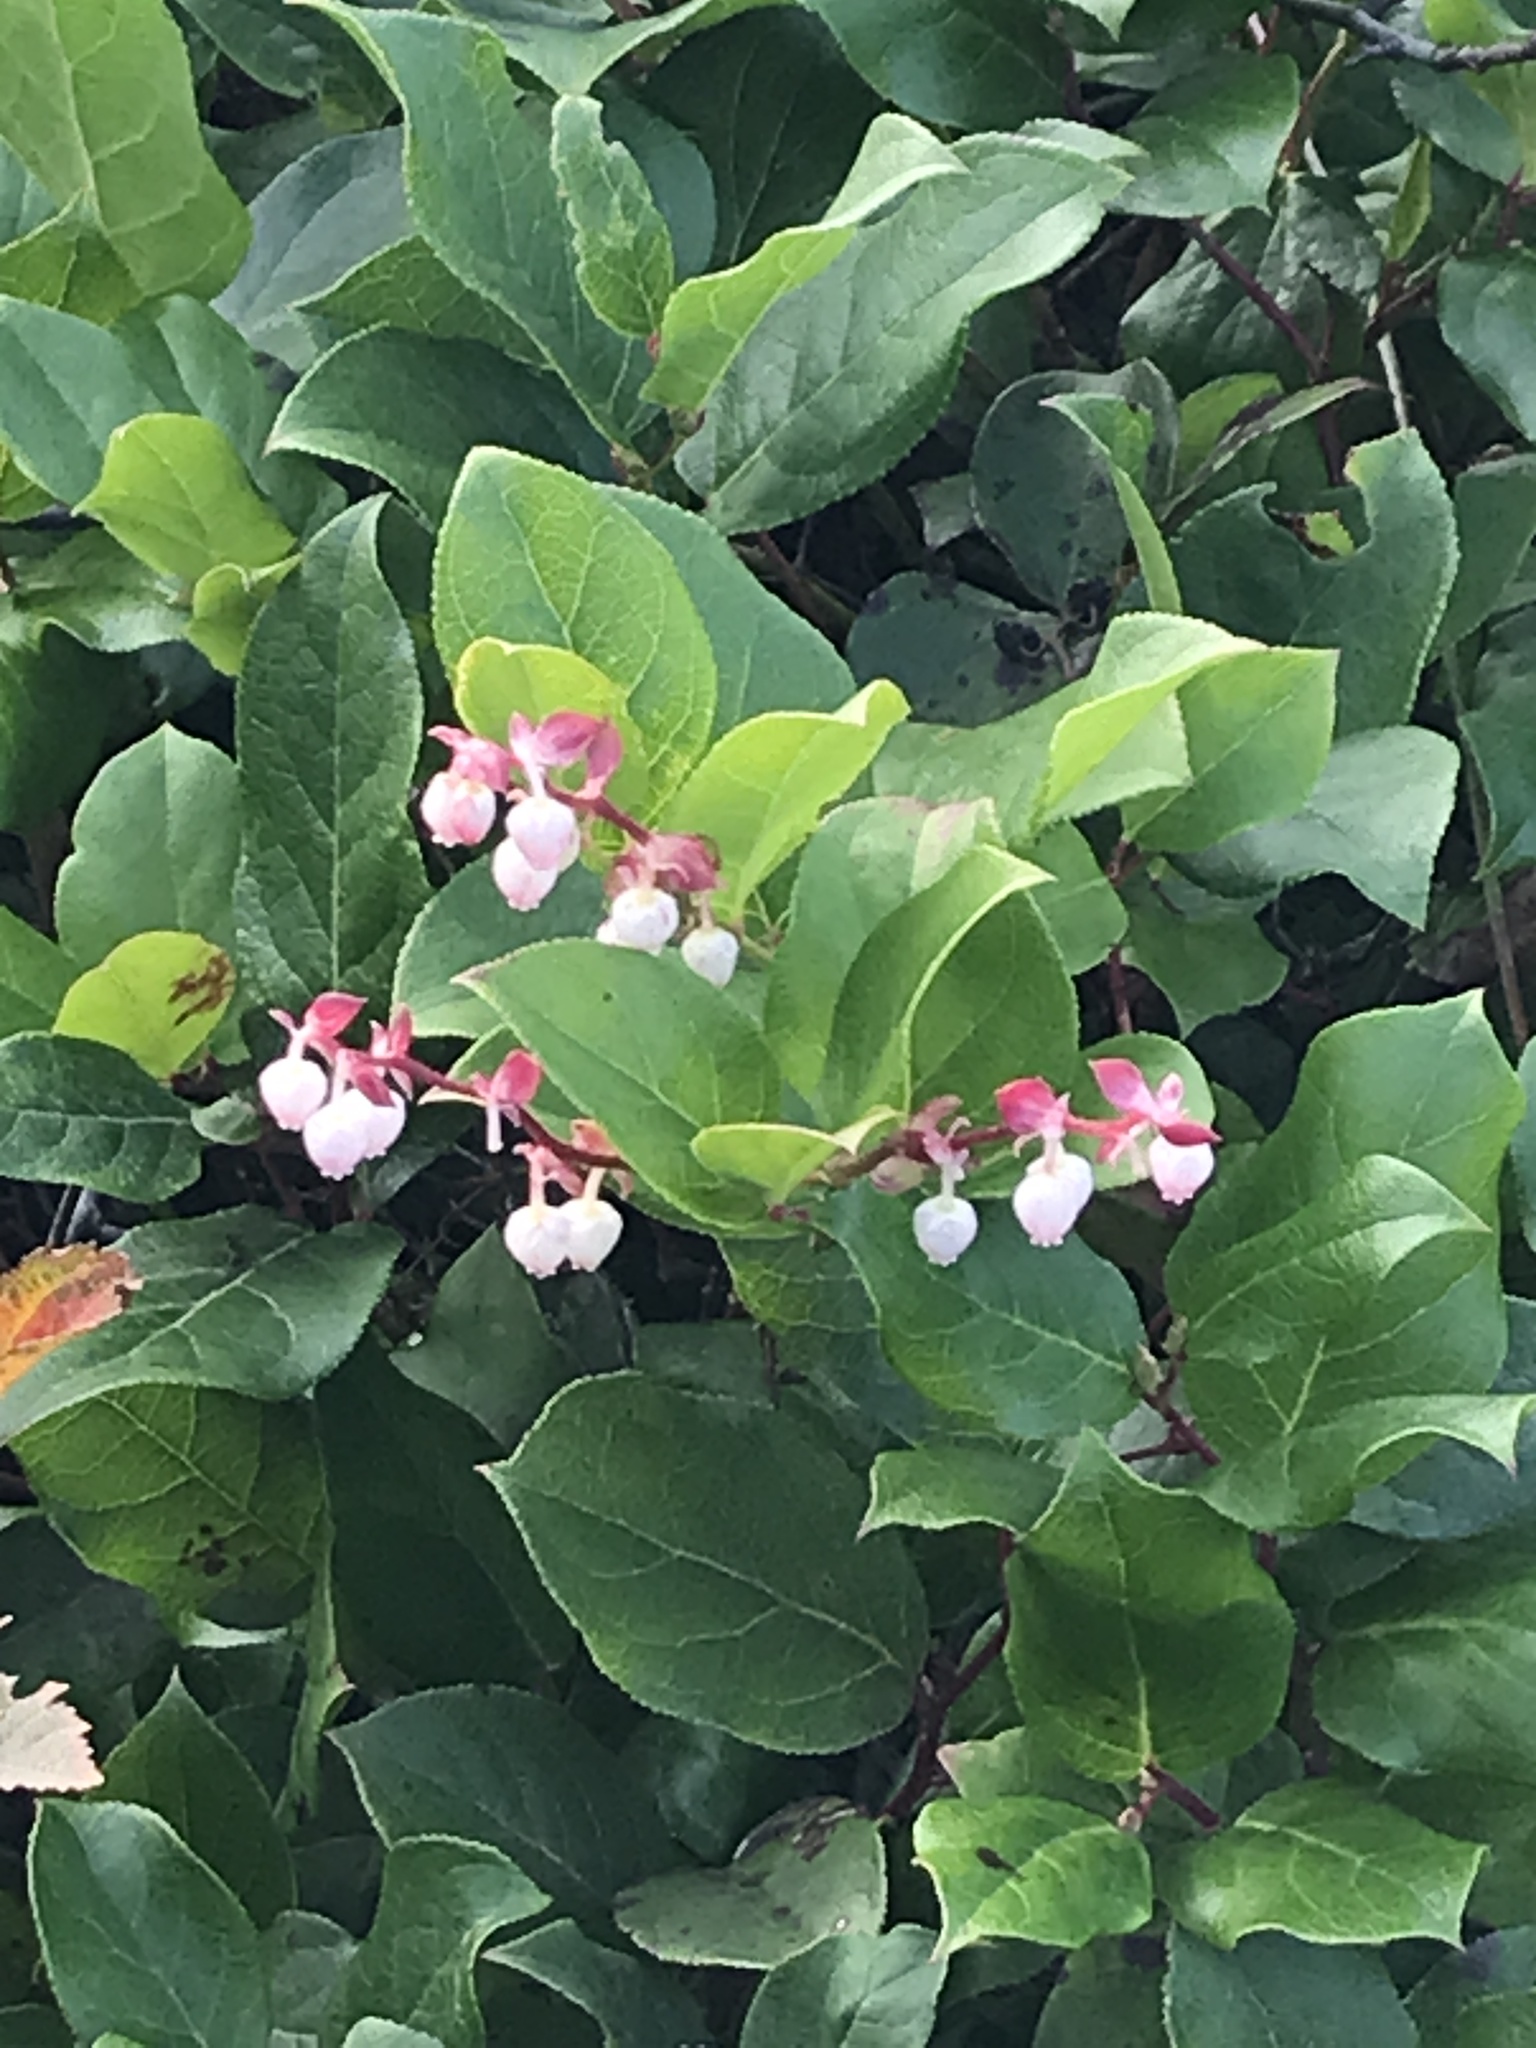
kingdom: Plantae
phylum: Tracheophyta
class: Magnoliopsida
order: Ericales
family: Ericaceae
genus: Gaultheria
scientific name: Gaultheria shallon
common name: Shallon
